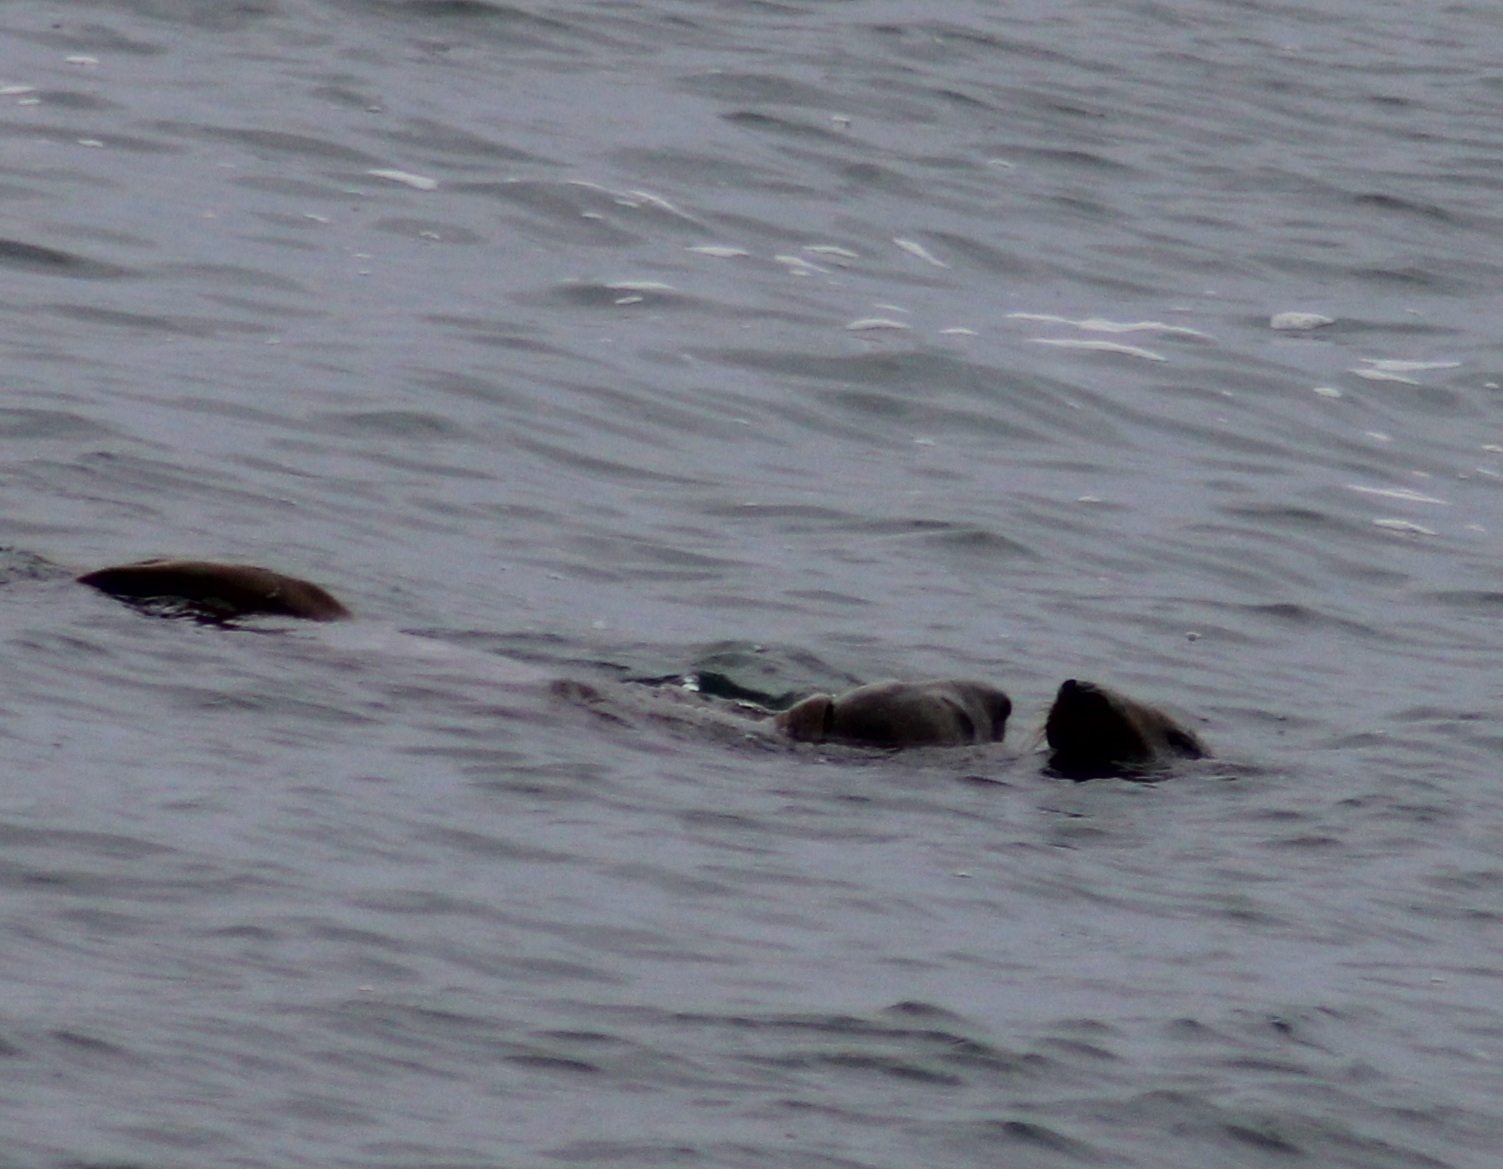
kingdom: Animalia
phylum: Chordata
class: Mammalia
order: Carnivora
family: Phocidae
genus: Halichoerus
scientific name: Halichoerus grypus
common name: Grey seal
